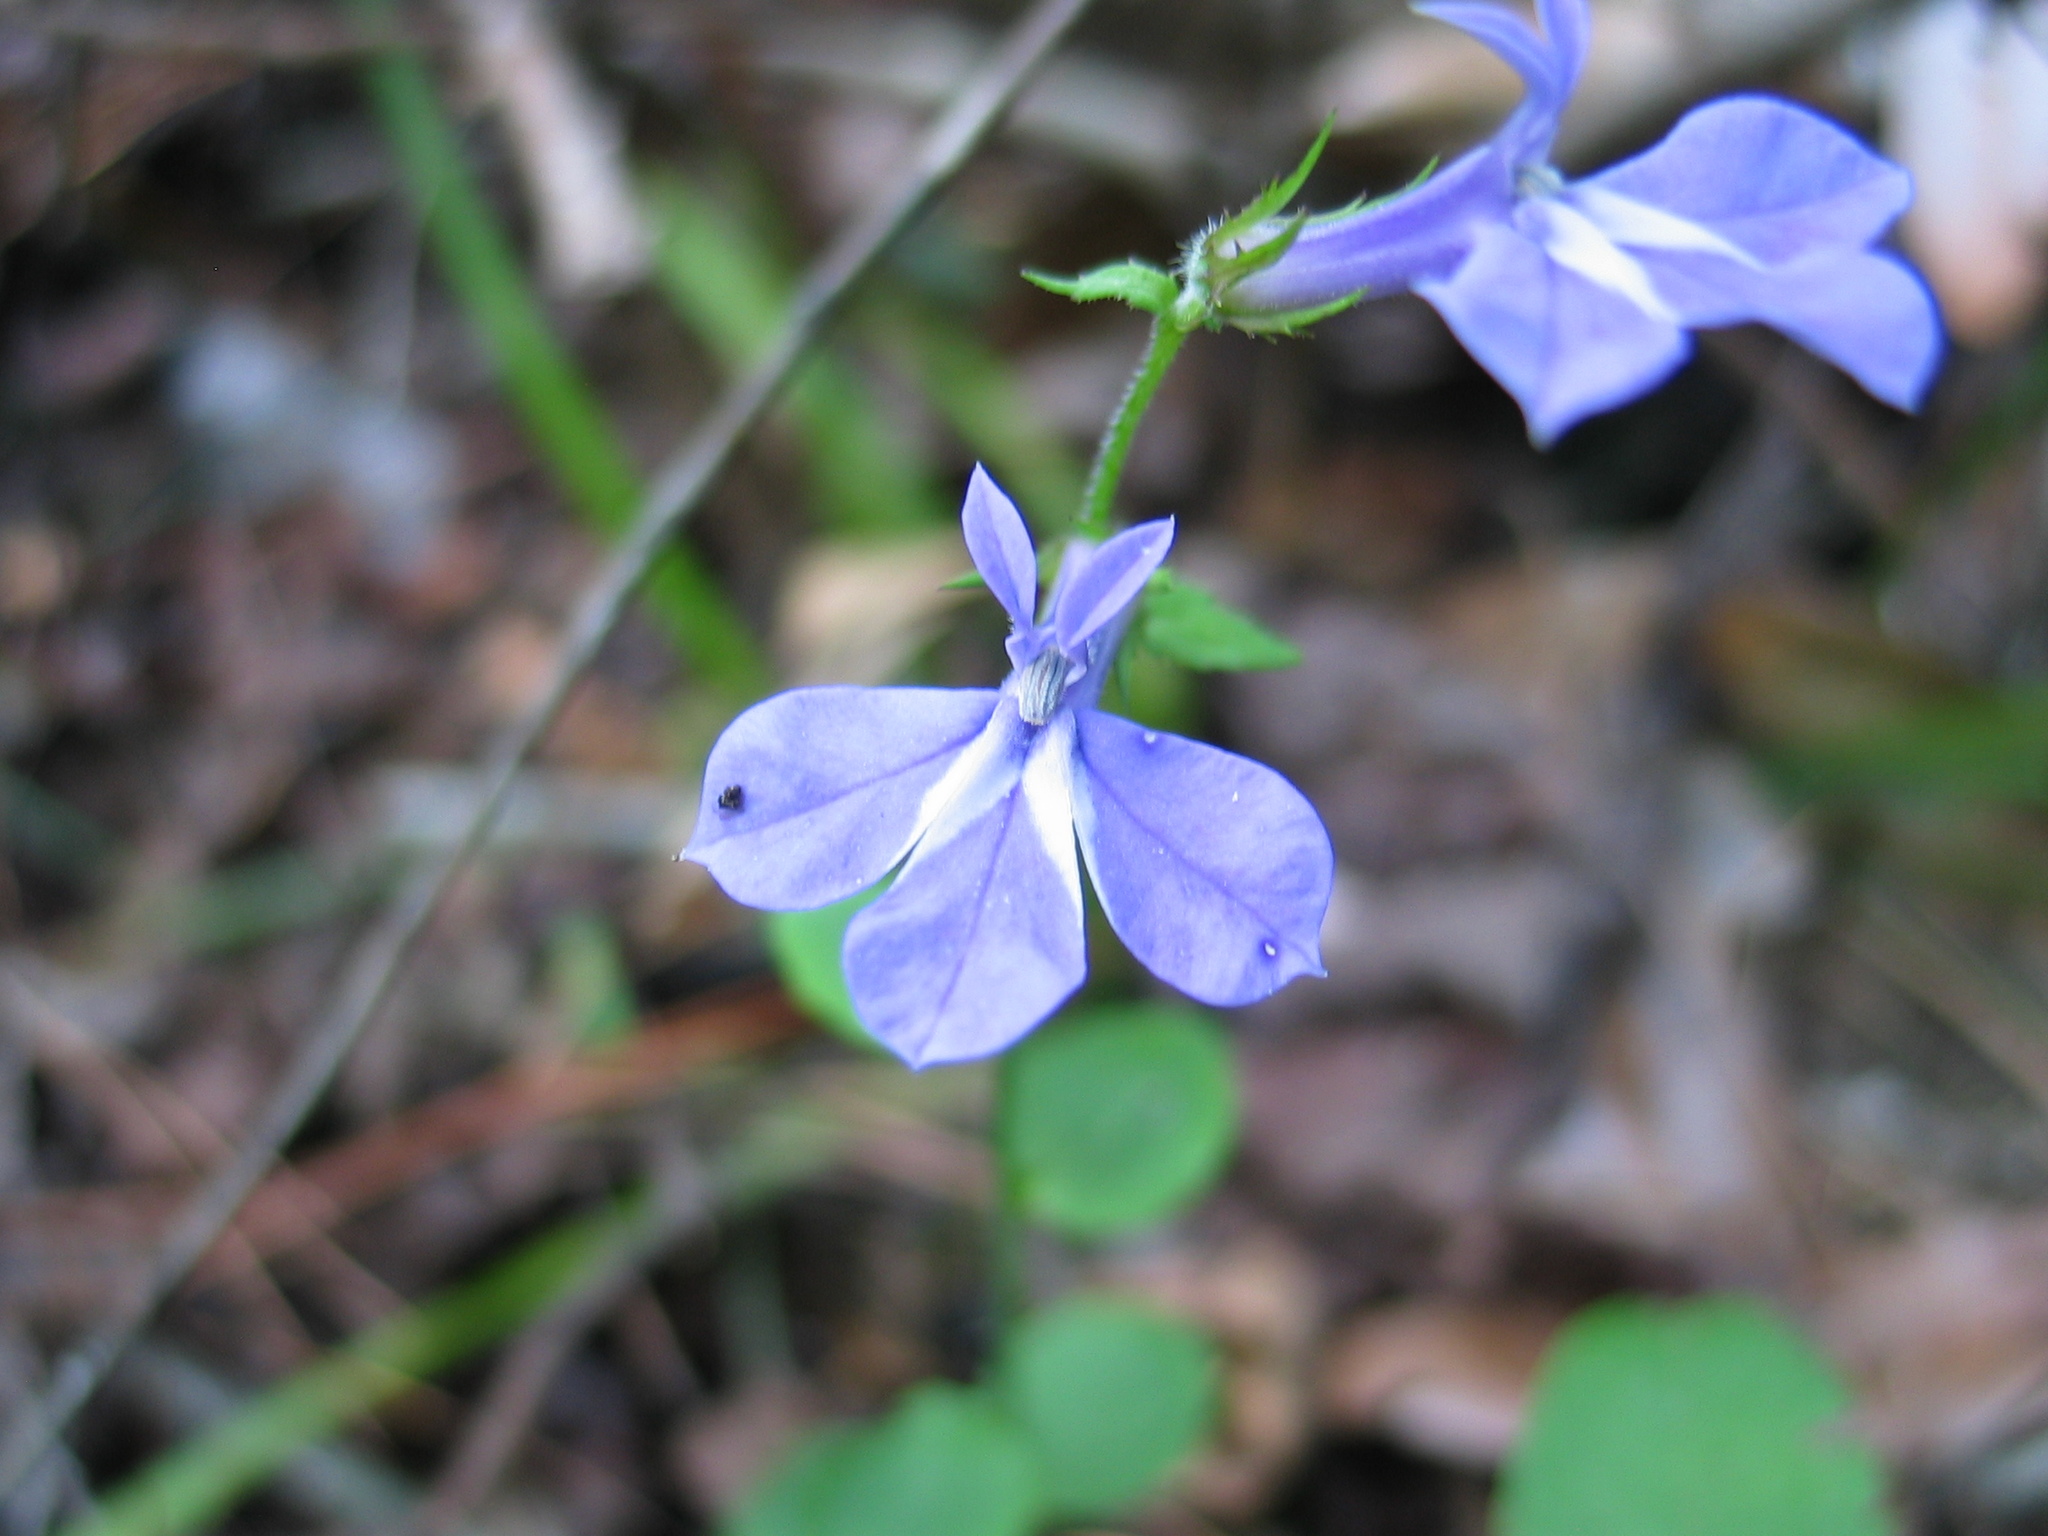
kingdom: Plantae
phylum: Tracheophyta
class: Magnoliopsida
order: Asterales
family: Campanulaceae
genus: Lobelia
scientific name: Lobelia georgiana
